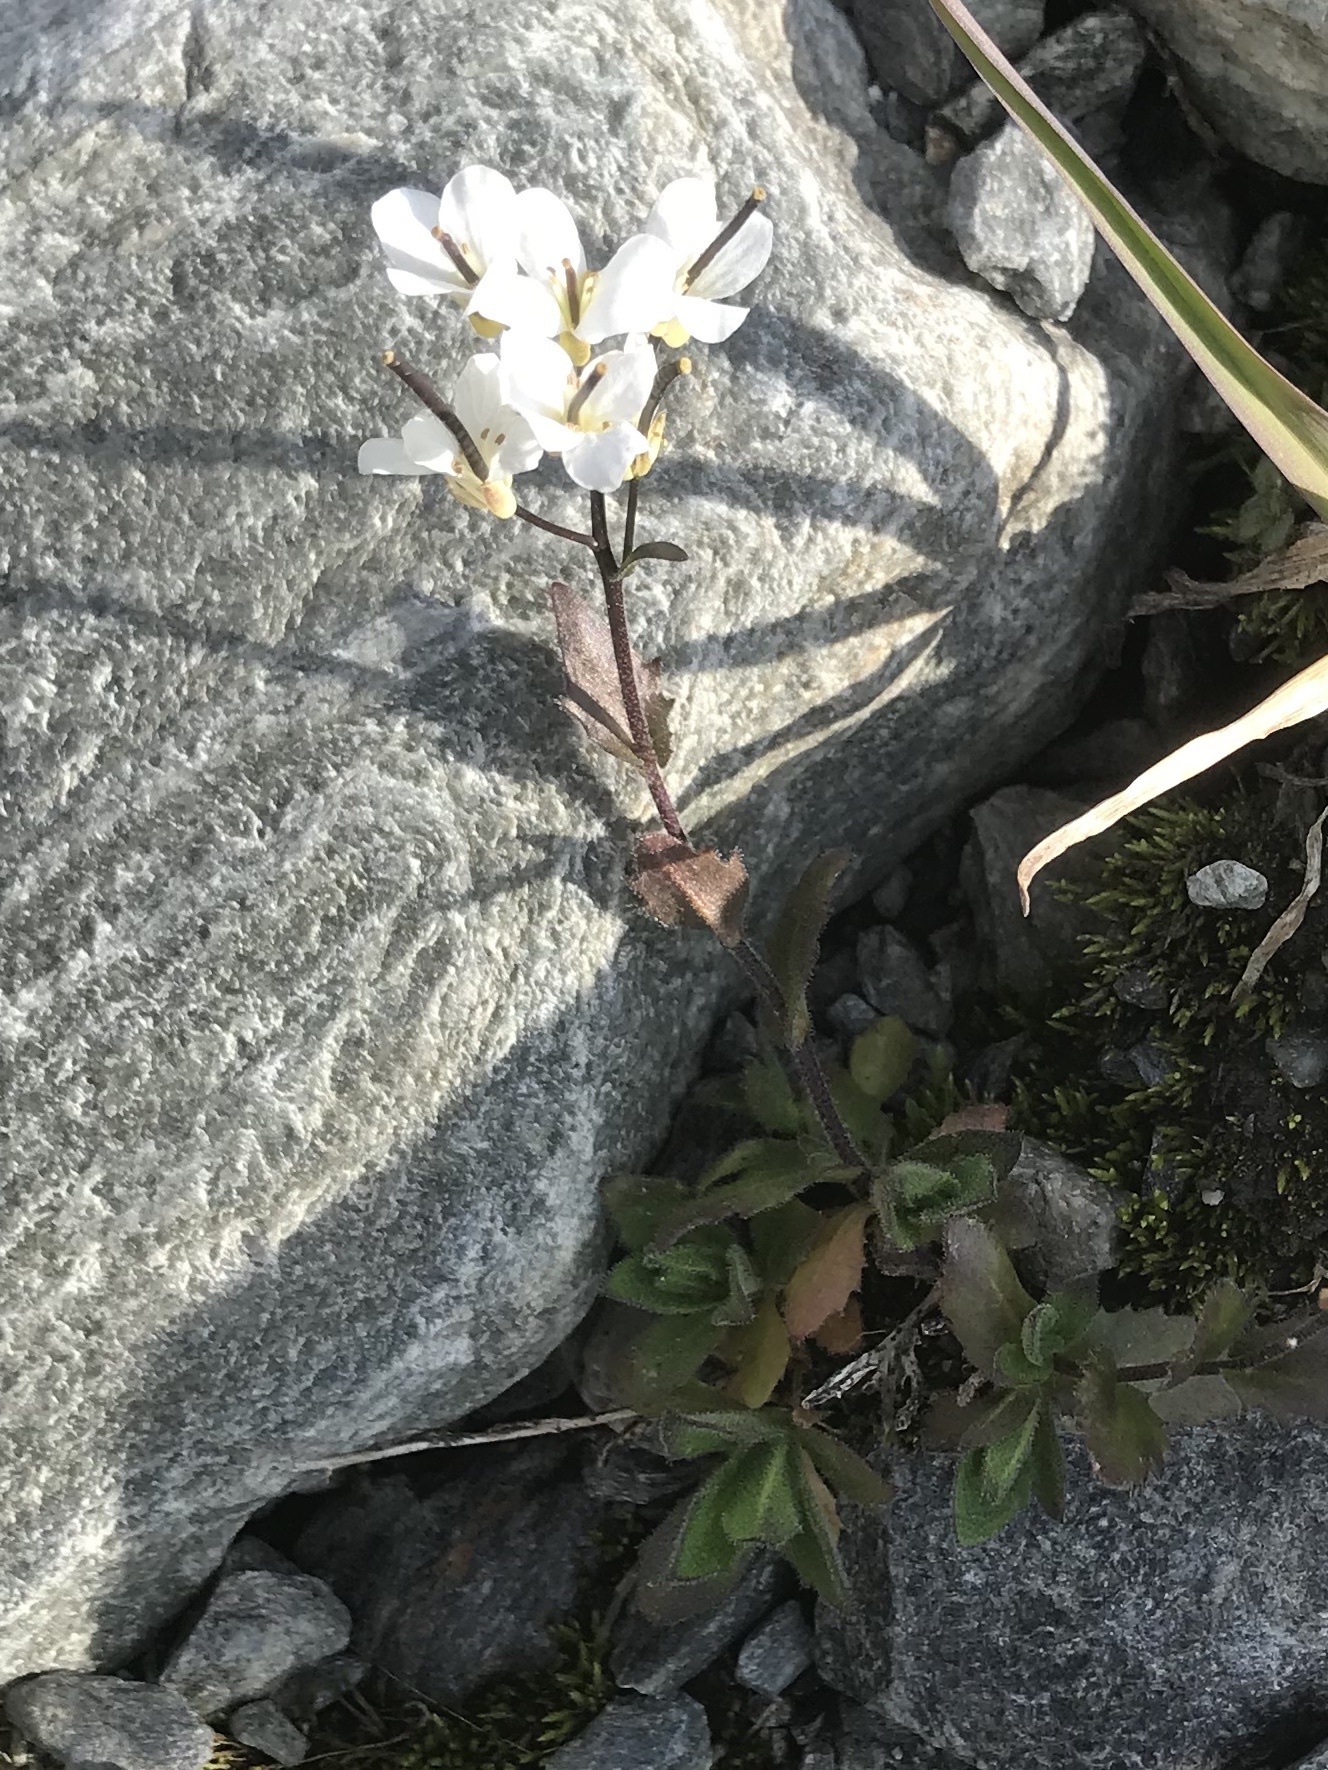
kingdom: Plantae
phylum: Tracheophyta
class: Magnoliopsida
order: Brassicales
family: Brassicaceae
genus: Arabis
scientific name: Arabis alpina
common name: Alpine rock-cress
